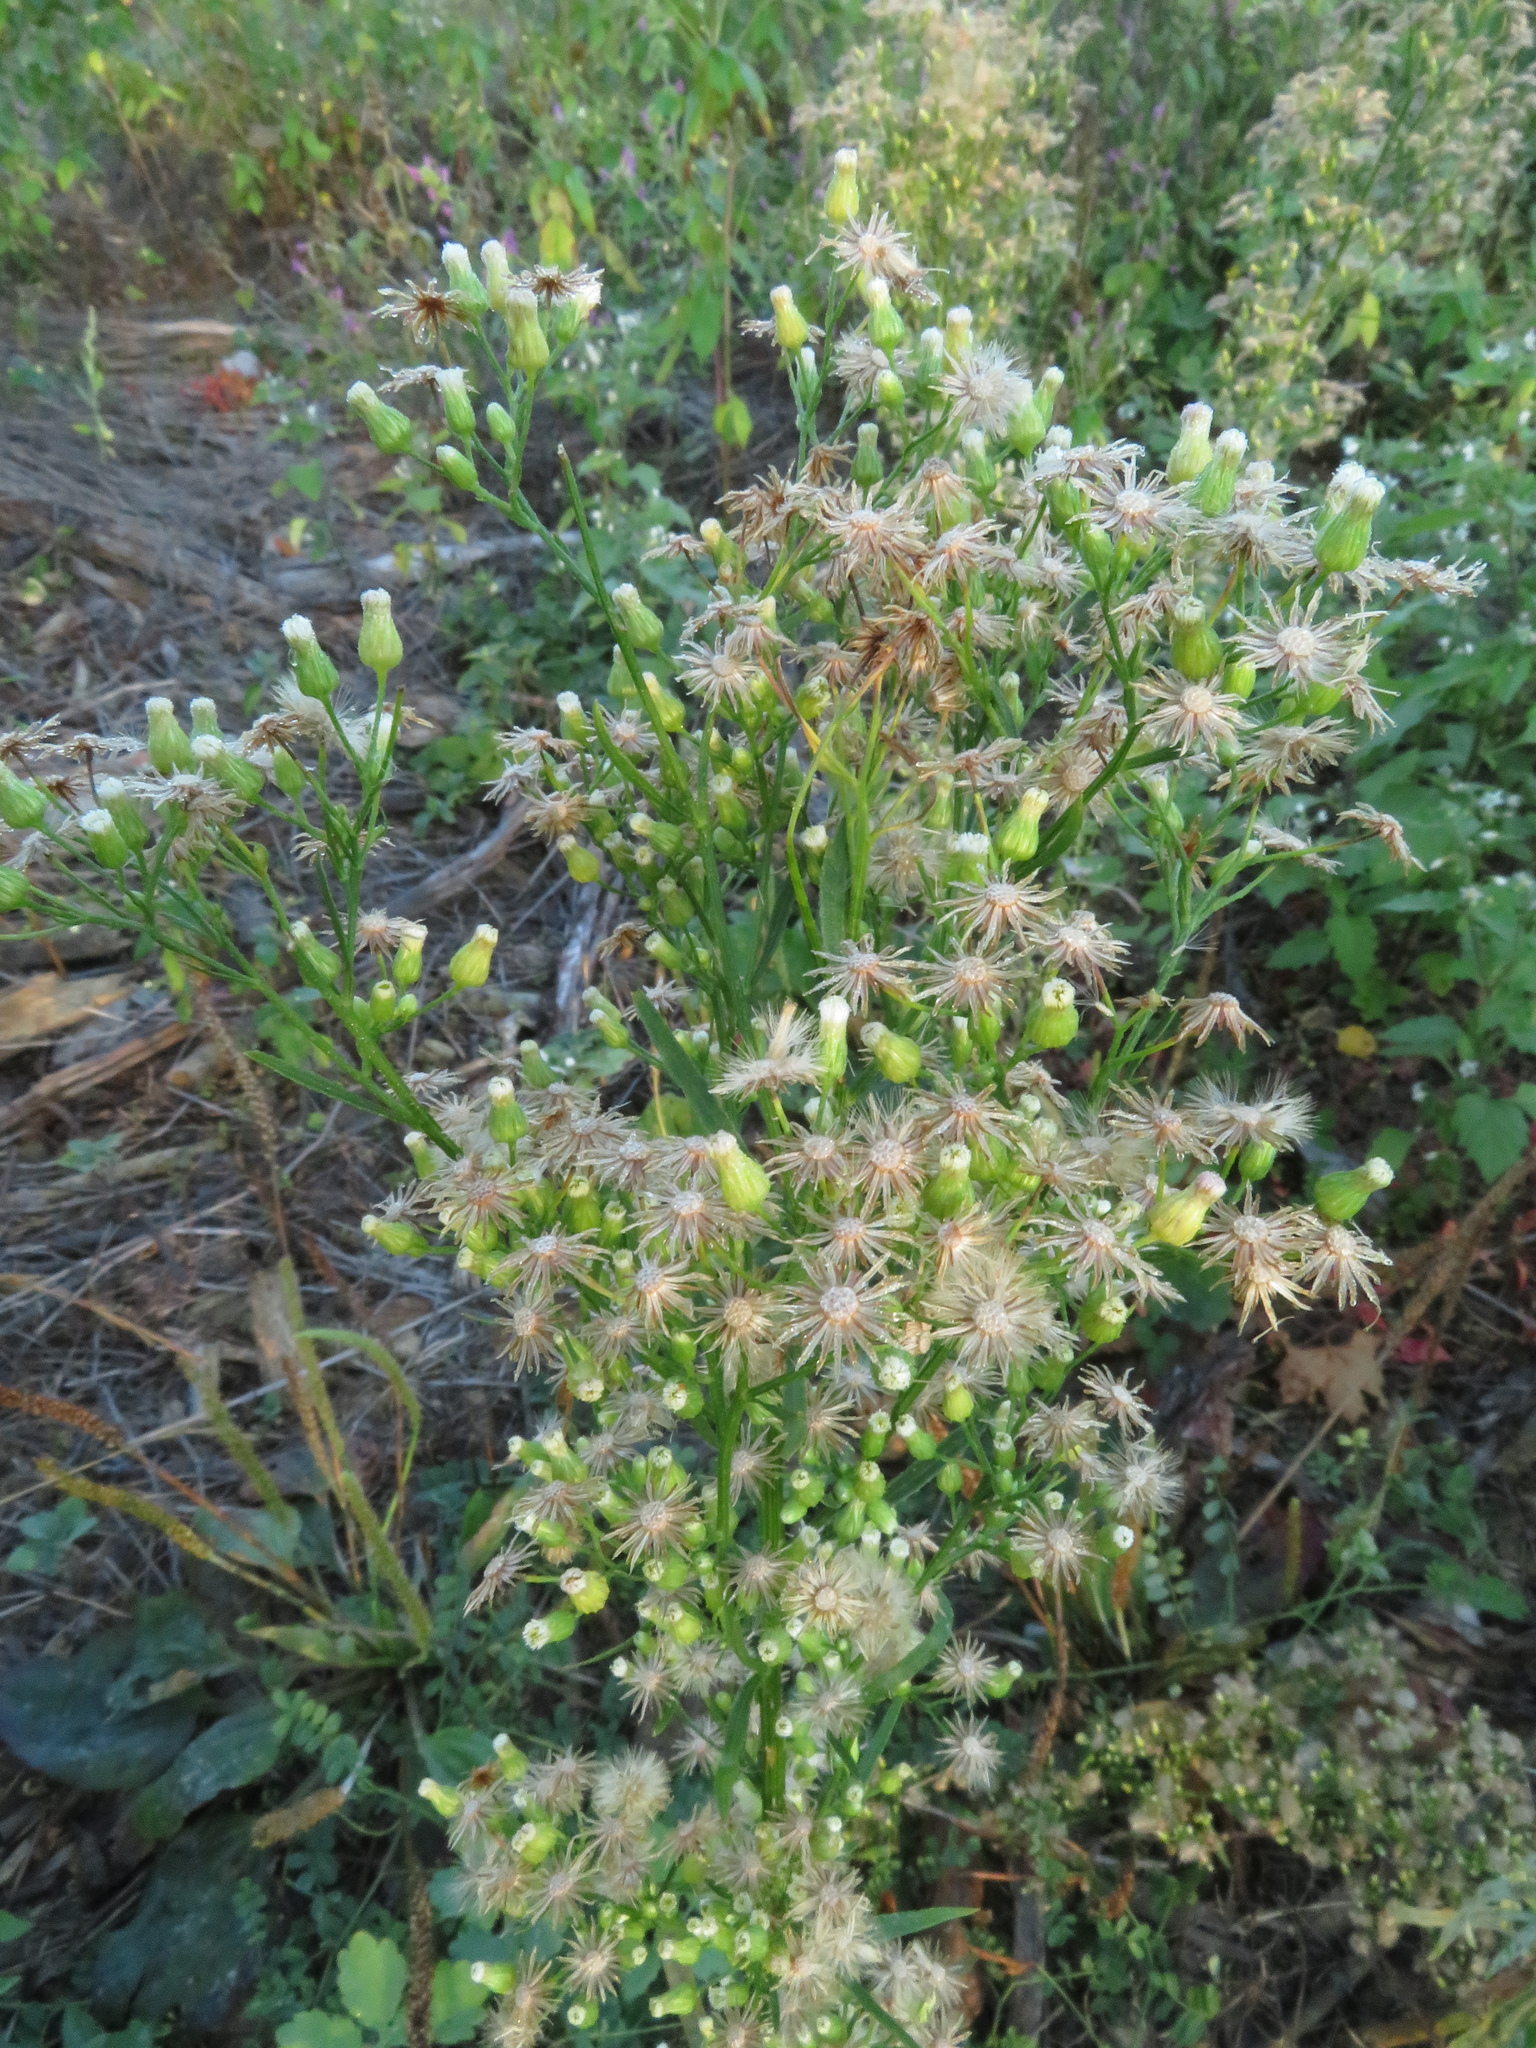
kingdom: Plantae
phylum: Tracheophyta
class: Magnoliopsida
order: Asterales
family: Asteraceae
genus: Erigeron
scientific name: Erigeron canadensis
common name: Canadian fleabane
